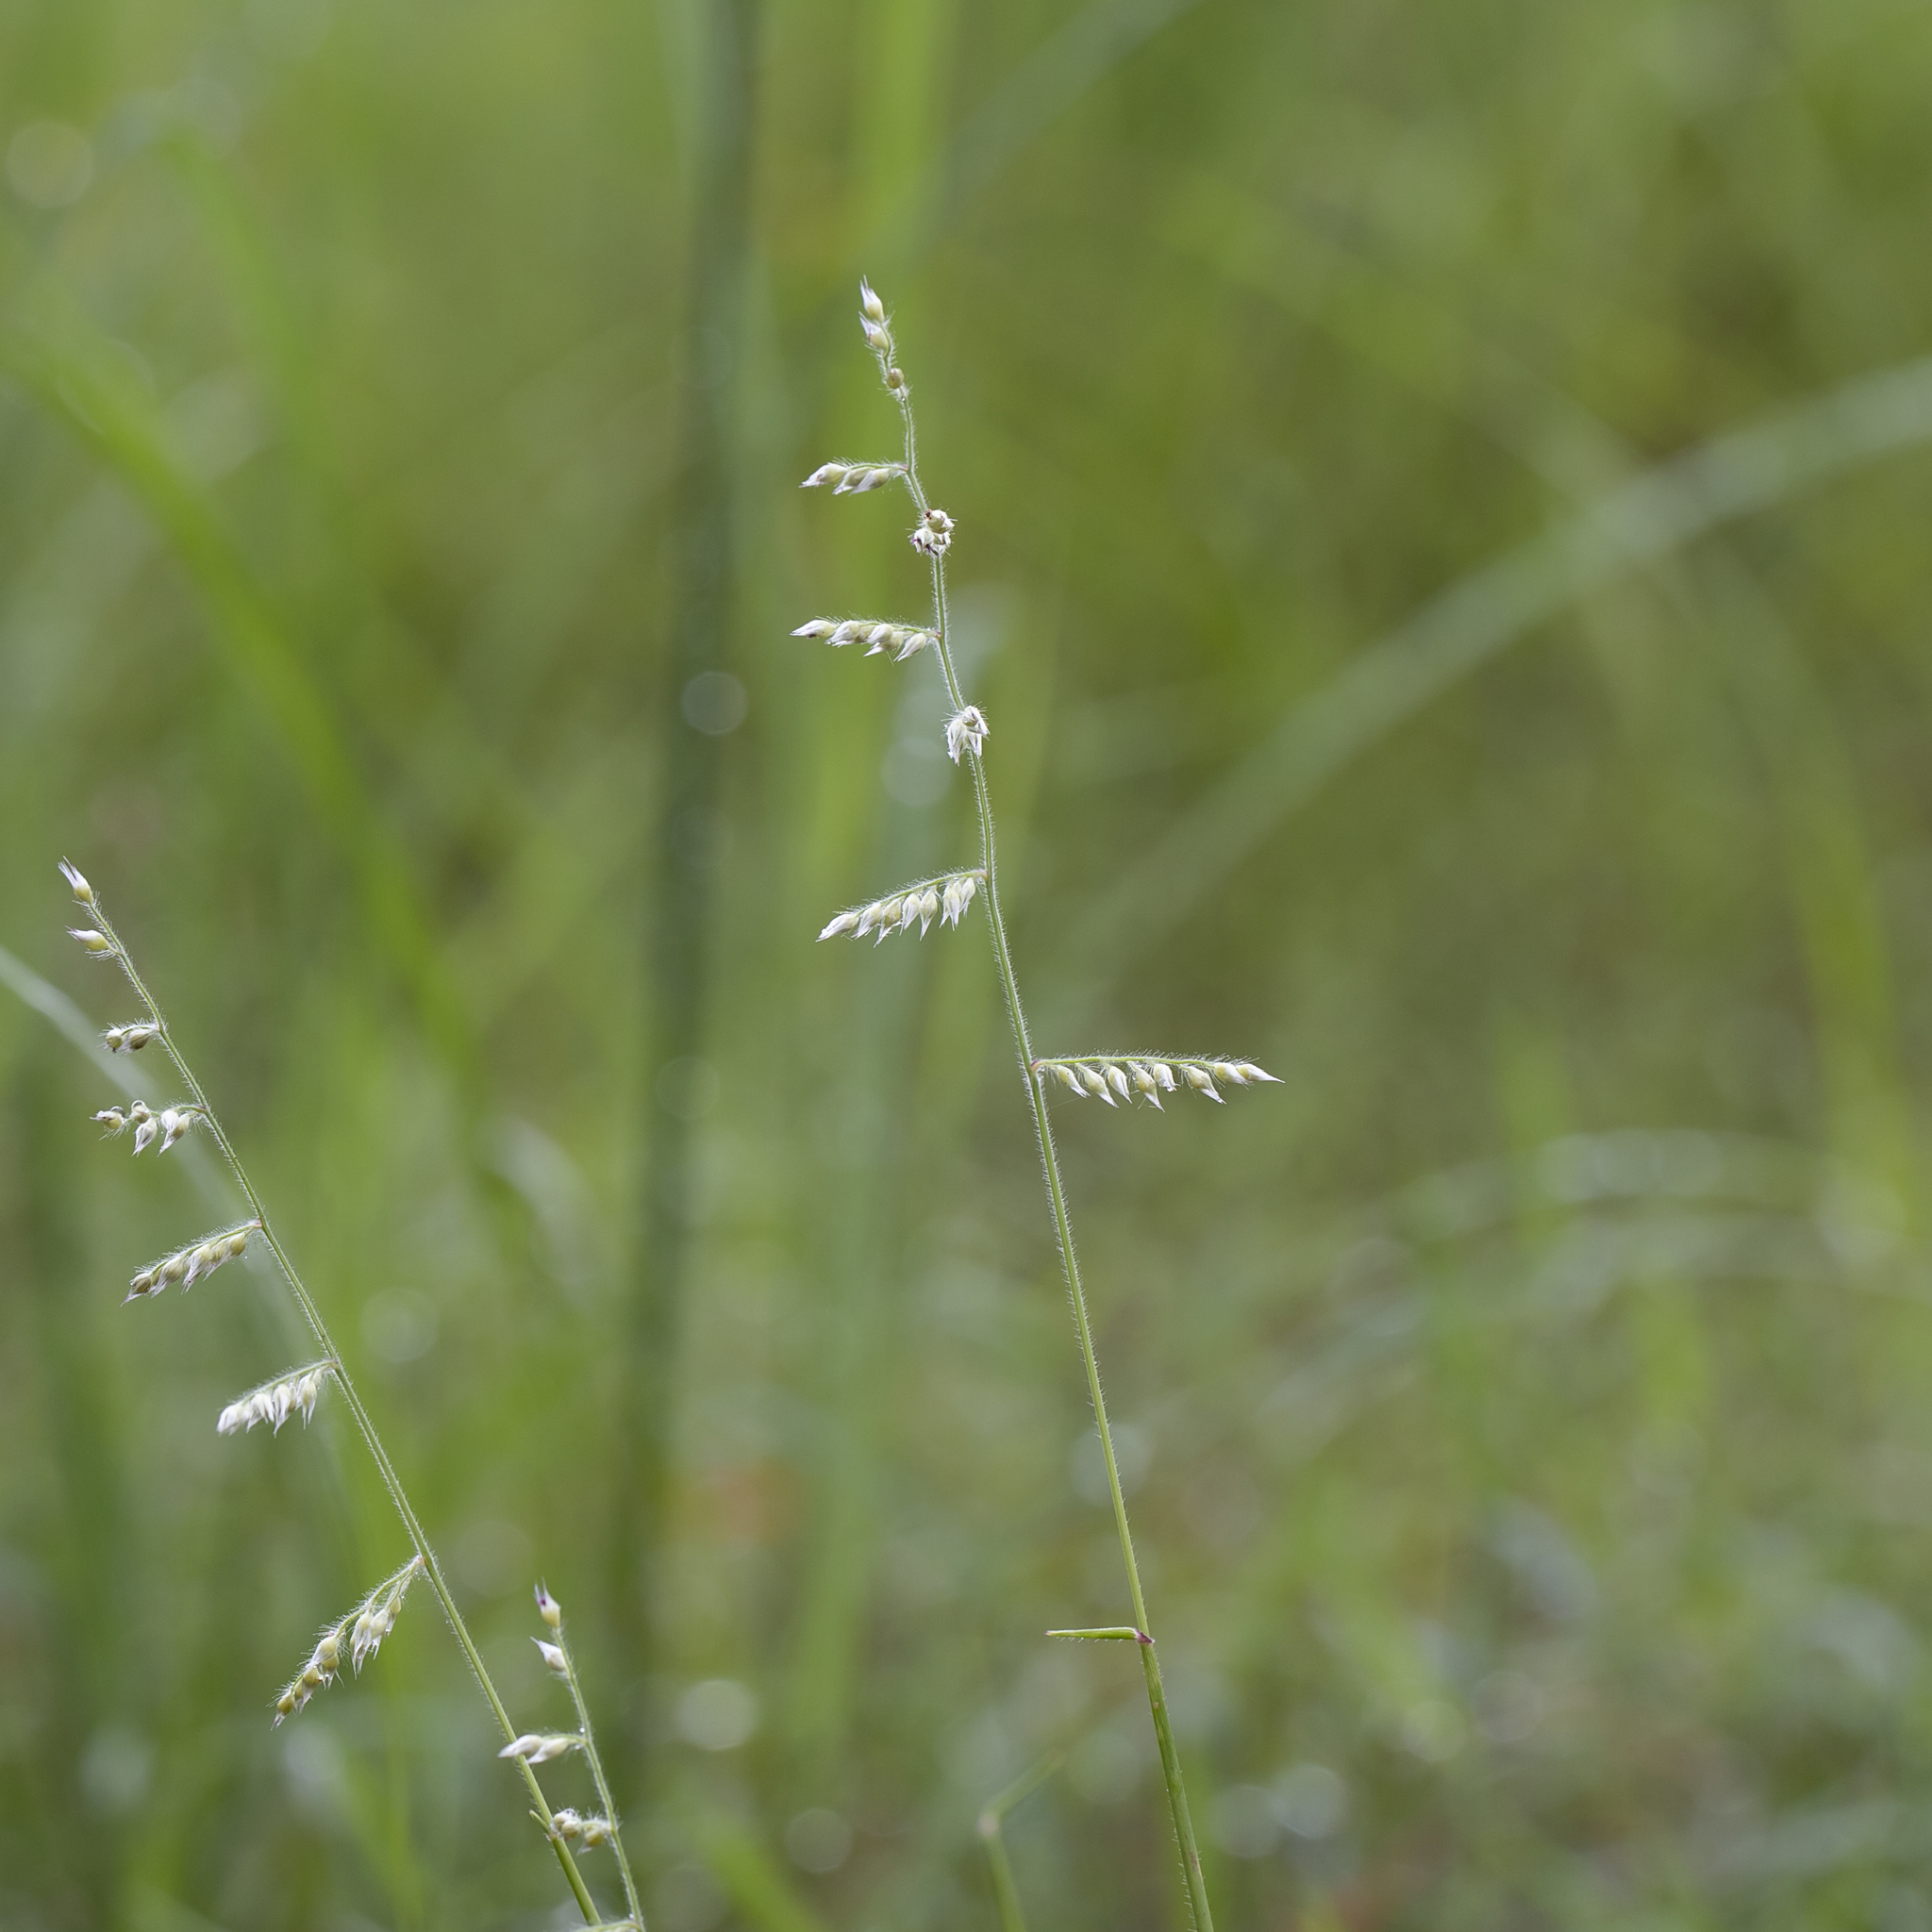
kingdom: Plantae
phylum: Tracheophyta
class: Liliopsida
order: Poales
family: Poaceae
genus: Urochloa
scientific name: Urochloa holosericea
